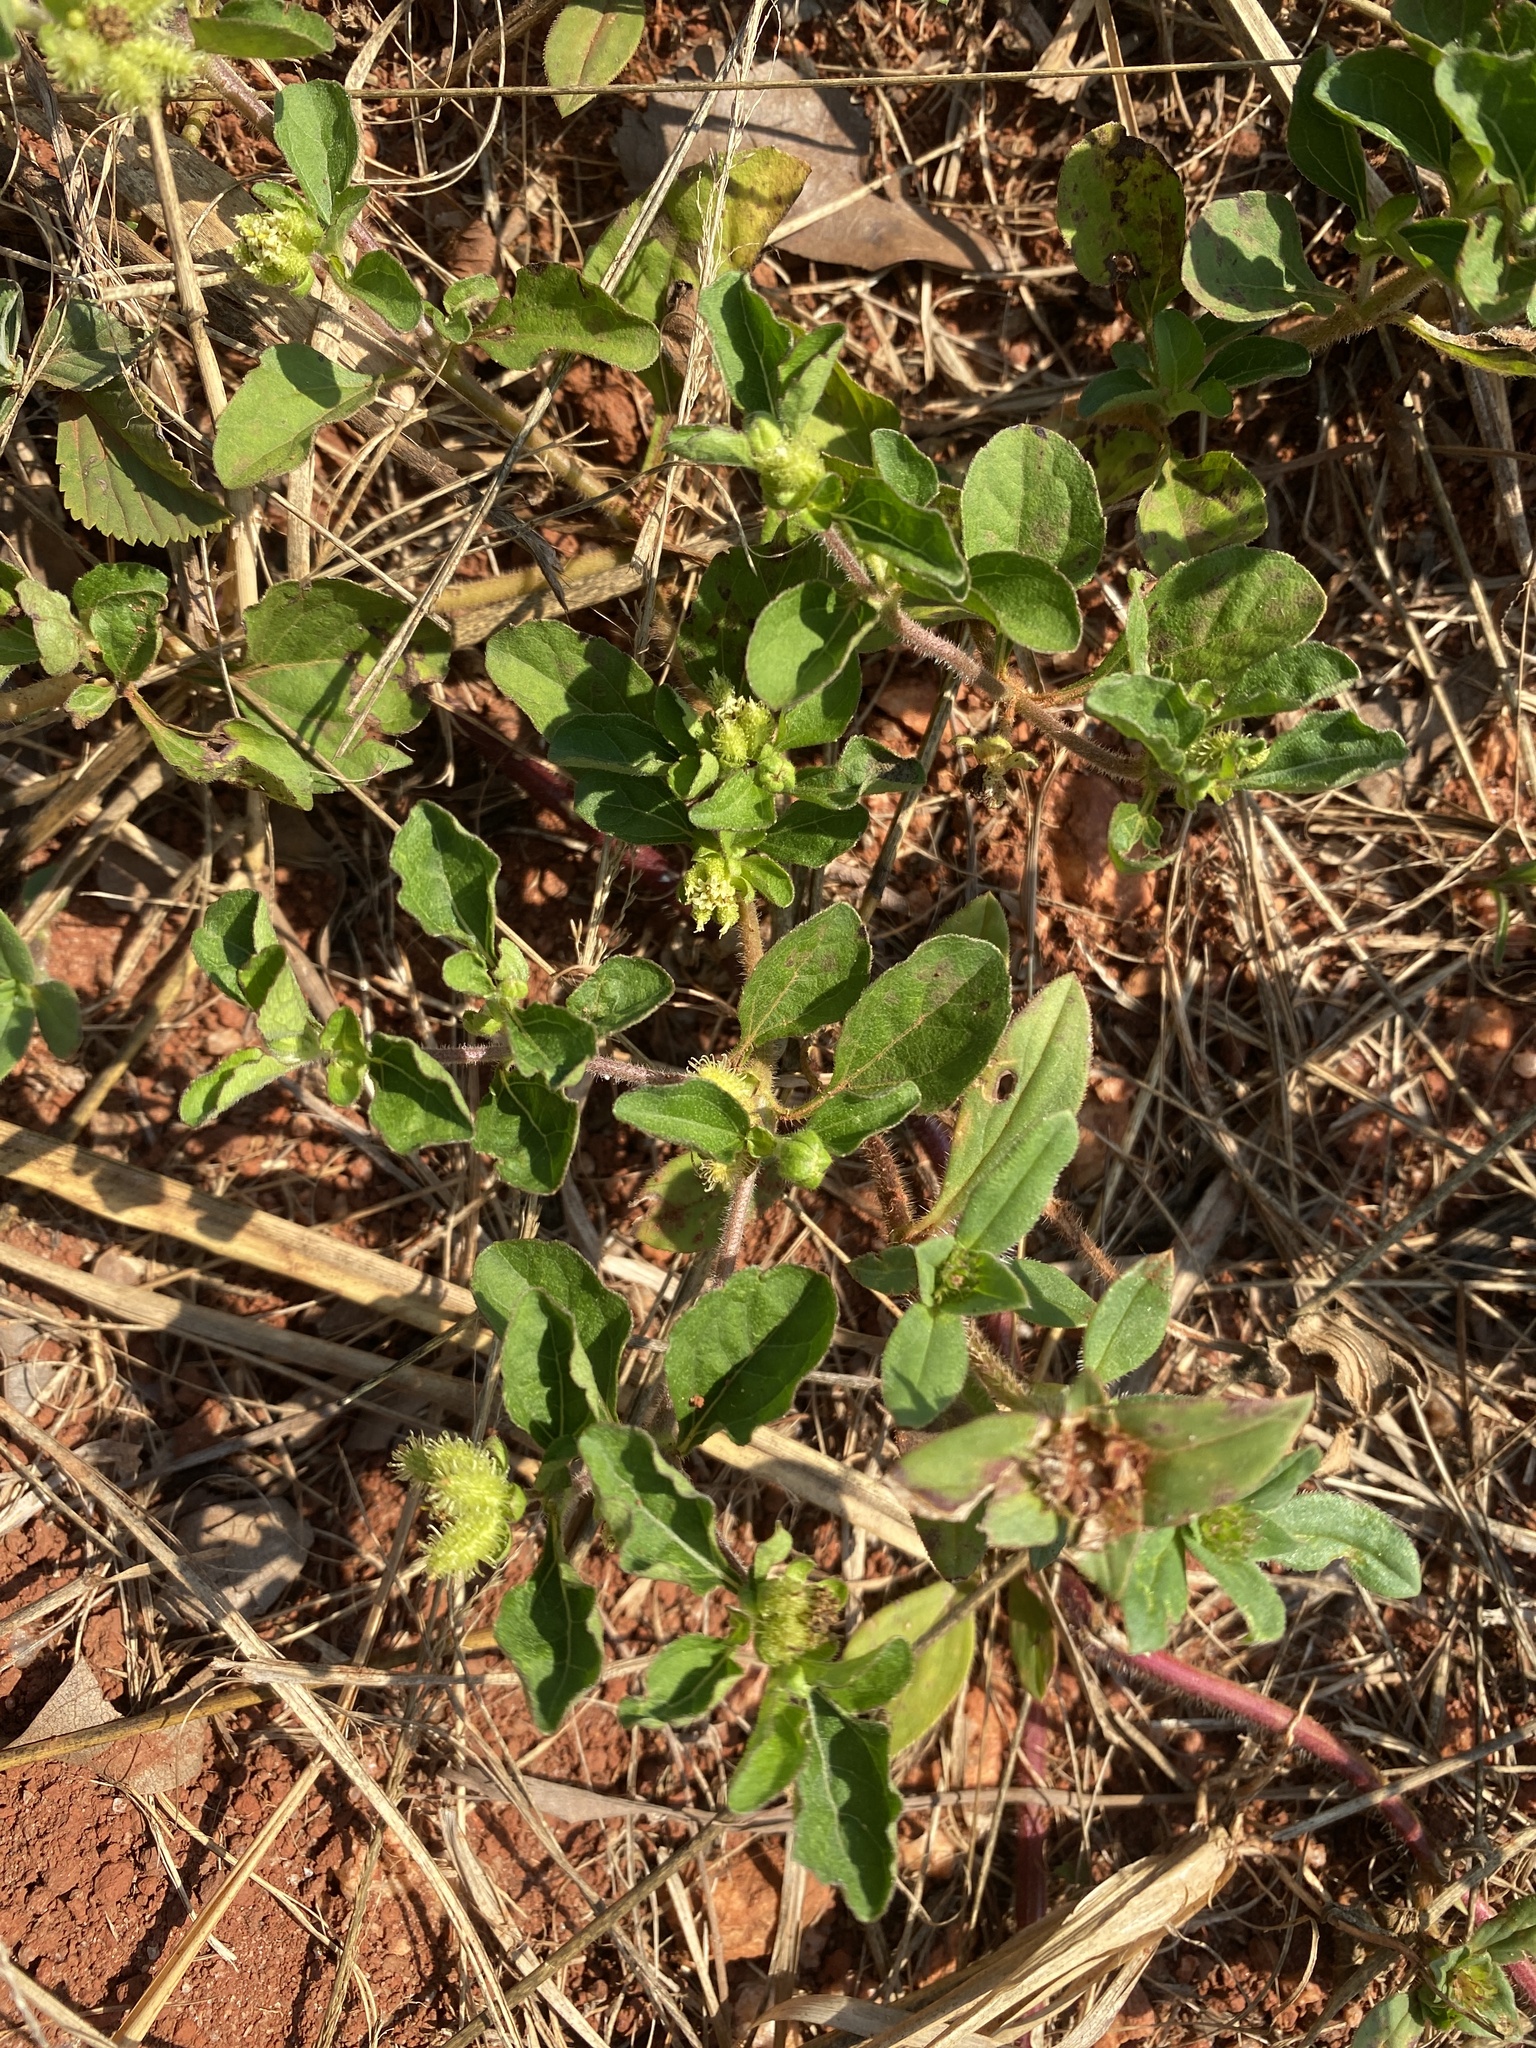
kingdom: Plantae
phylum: Tracheophyta
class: Magnoliopsida
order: Asterales
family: Asteraceae
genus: Acanthospermum
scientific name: Acanthospermum australe
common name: Paraguayan starbur
